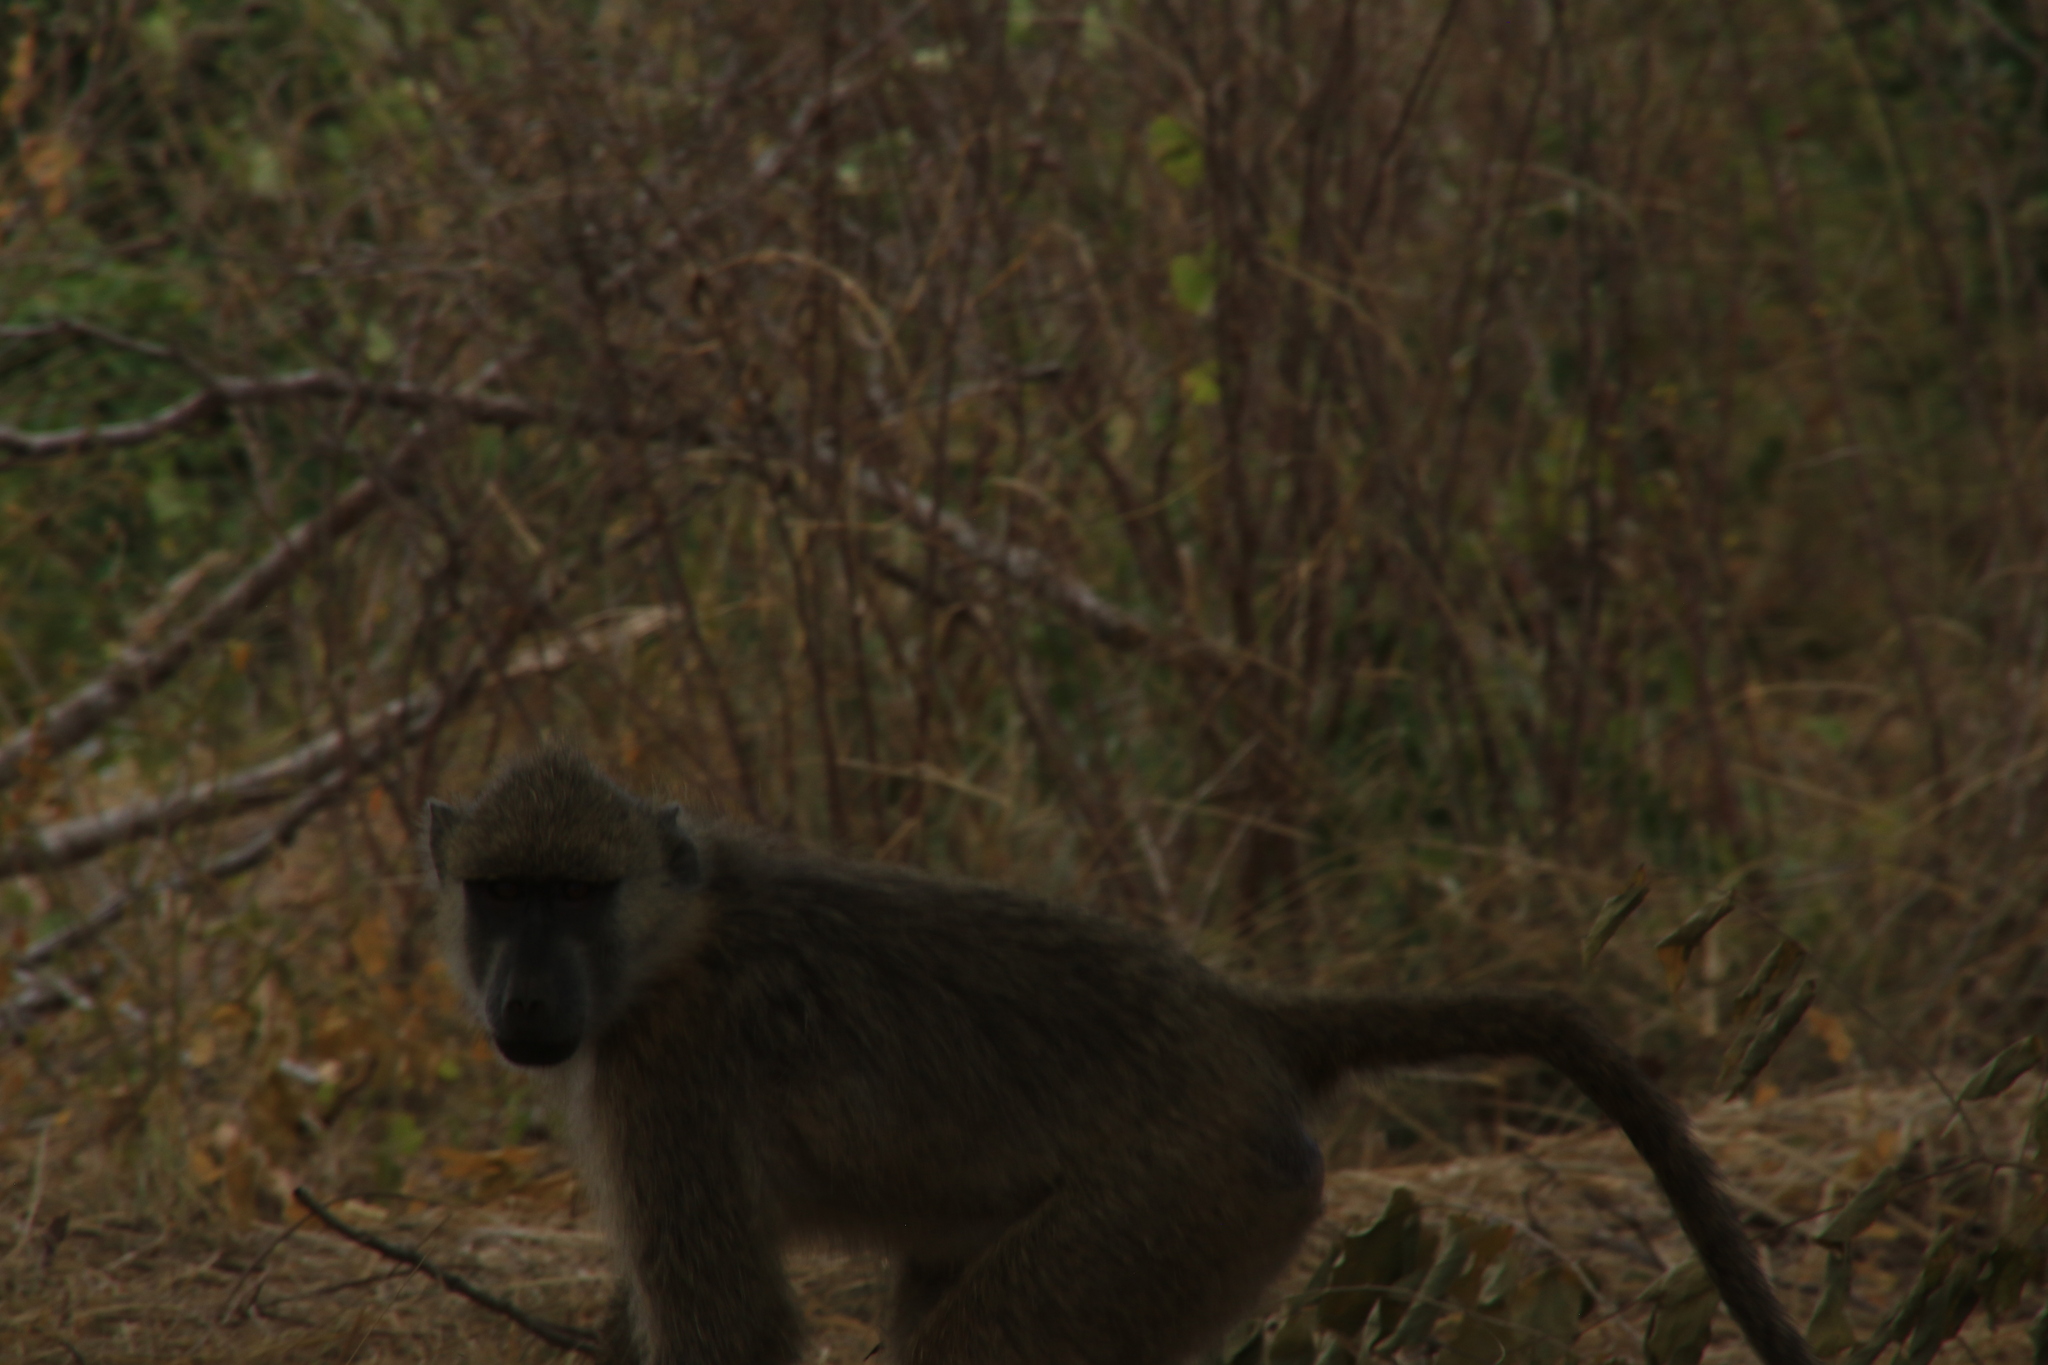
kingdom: Animalia
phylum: Chordata
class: Mammalia
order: Primates
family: Cercopithecidae
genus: Papio
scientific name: Papio cynocephalus
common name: Yellow baboon
